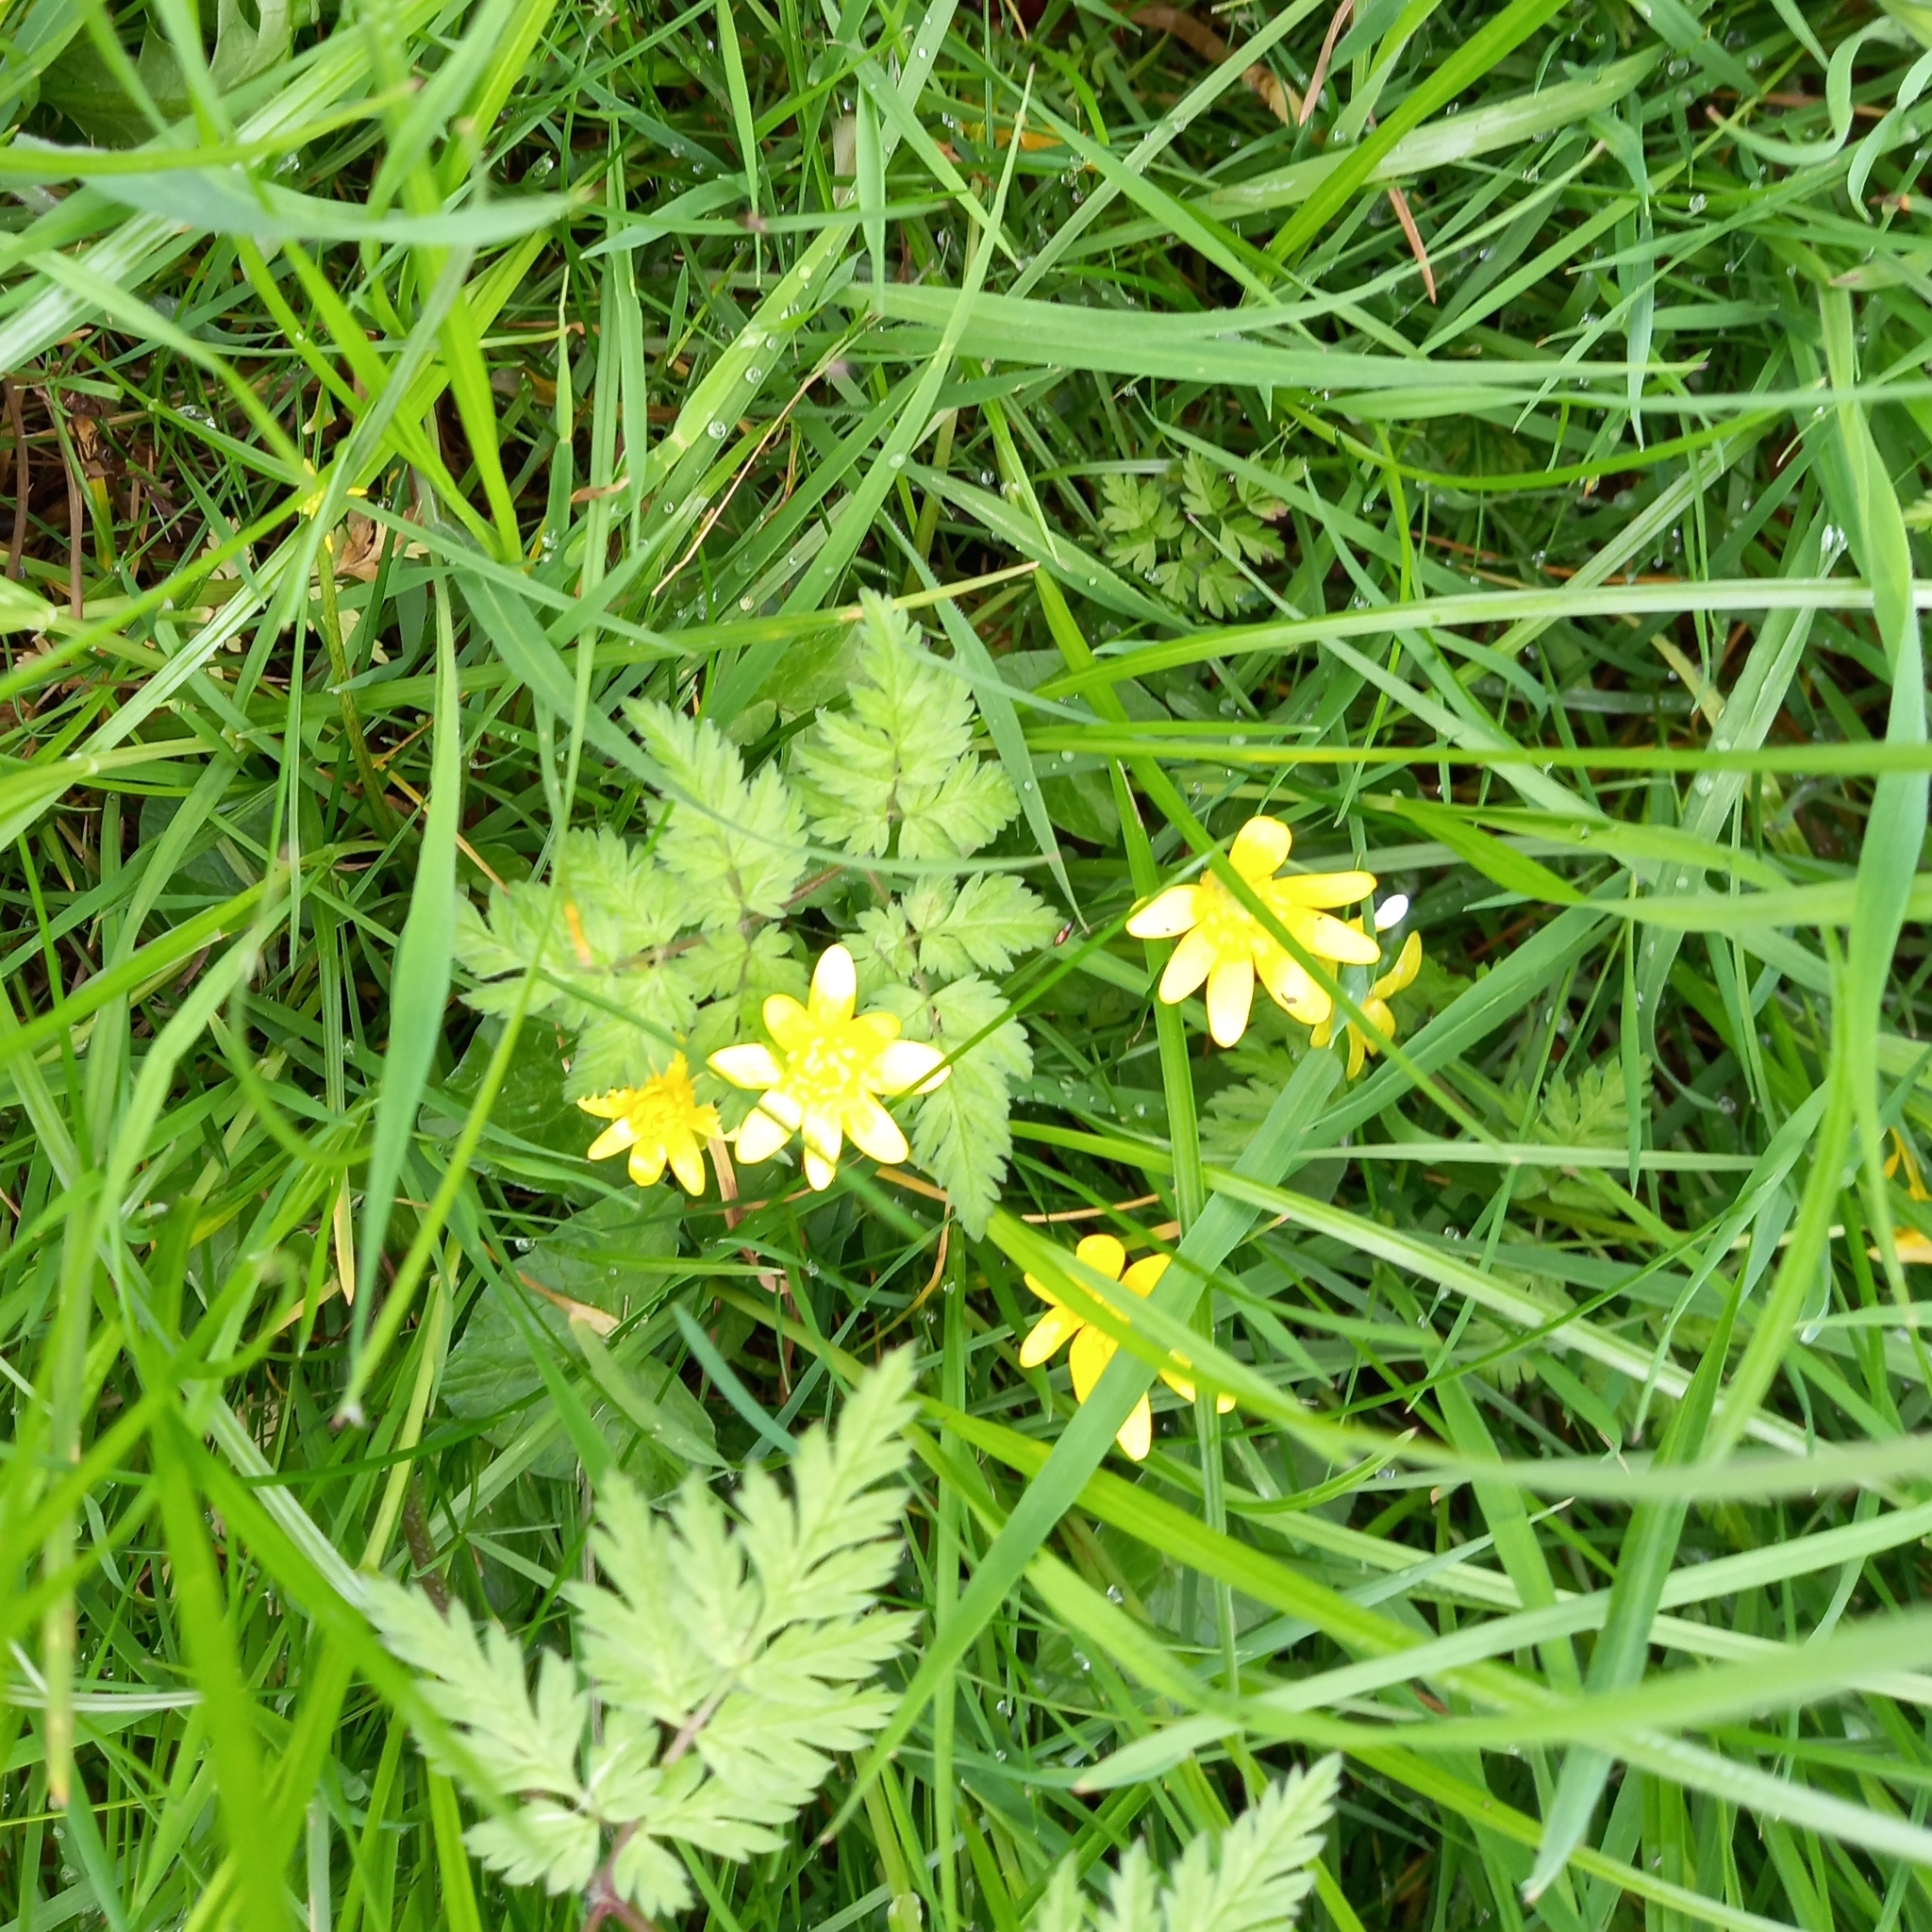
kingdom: Plantae
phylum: Tracheophyta
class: Magnoliopsida
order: Ranunculales
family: Ranunculaceae
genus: Ficaria
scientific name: Ficaria verna
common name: Lesser celandine
